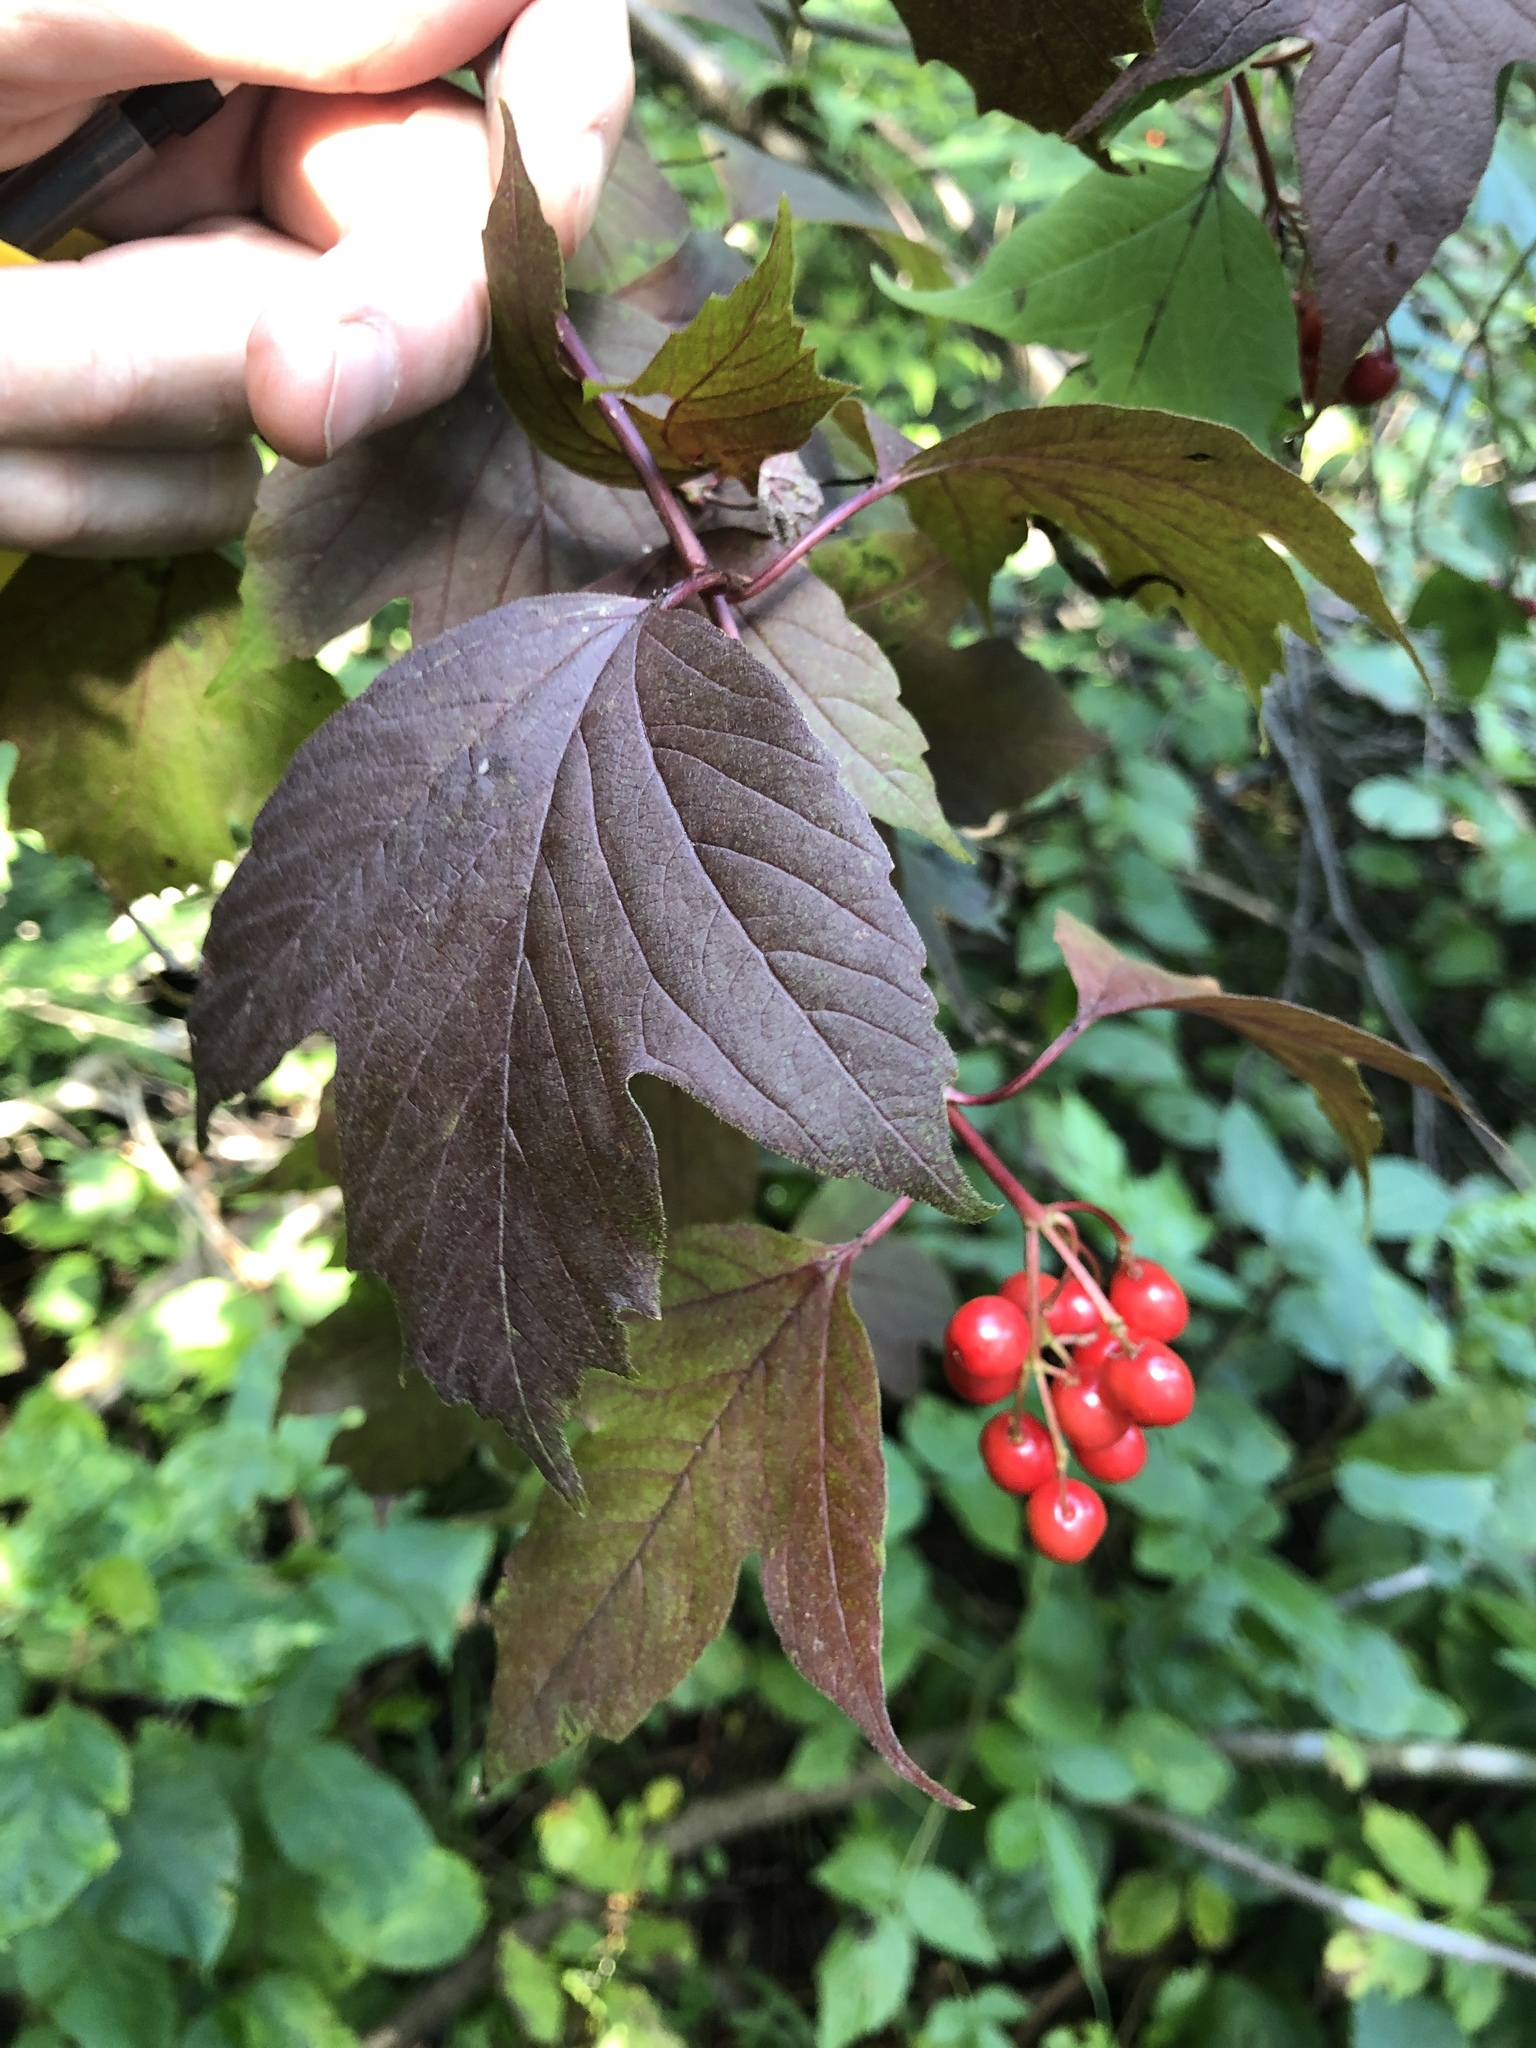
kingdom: Plantae
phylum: Tracheophyta
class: Magnoliopsida
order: Dipsacales
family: Viburnaceae
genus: Viburnum
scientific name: Viburnum opulus
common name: Guelder-rose
